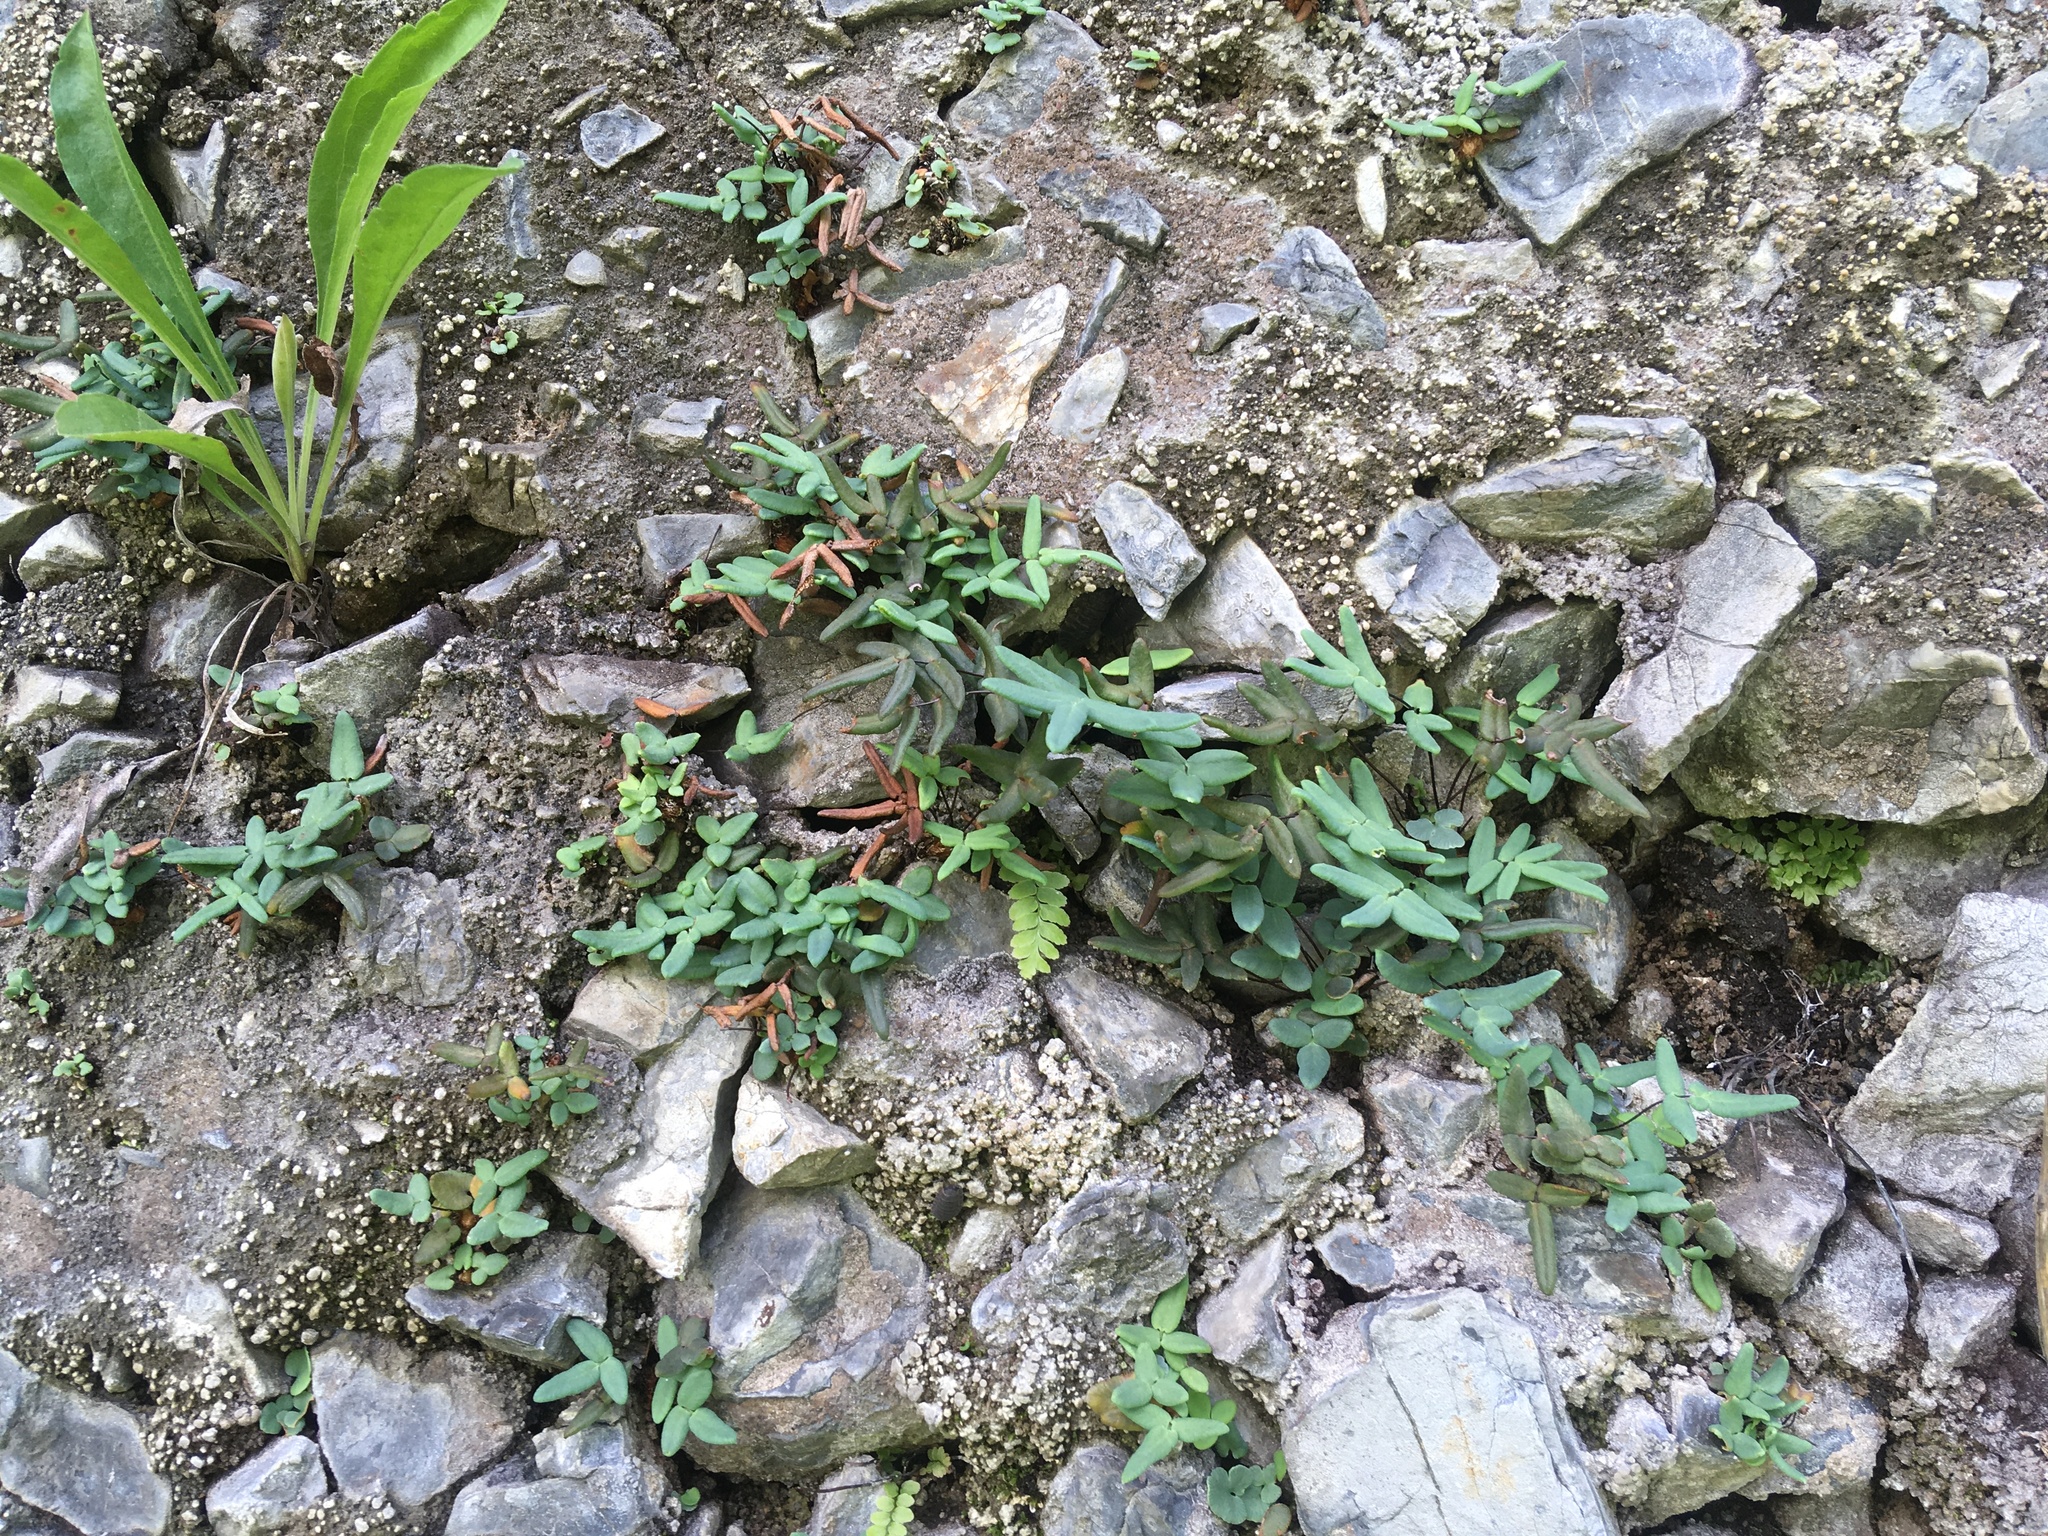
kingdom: Plantae
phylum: Tracheophyta
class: Polypodiopsida
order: Polypodiales
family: Pteridaceae
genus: Pellaea
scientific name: Pellaea glabella
